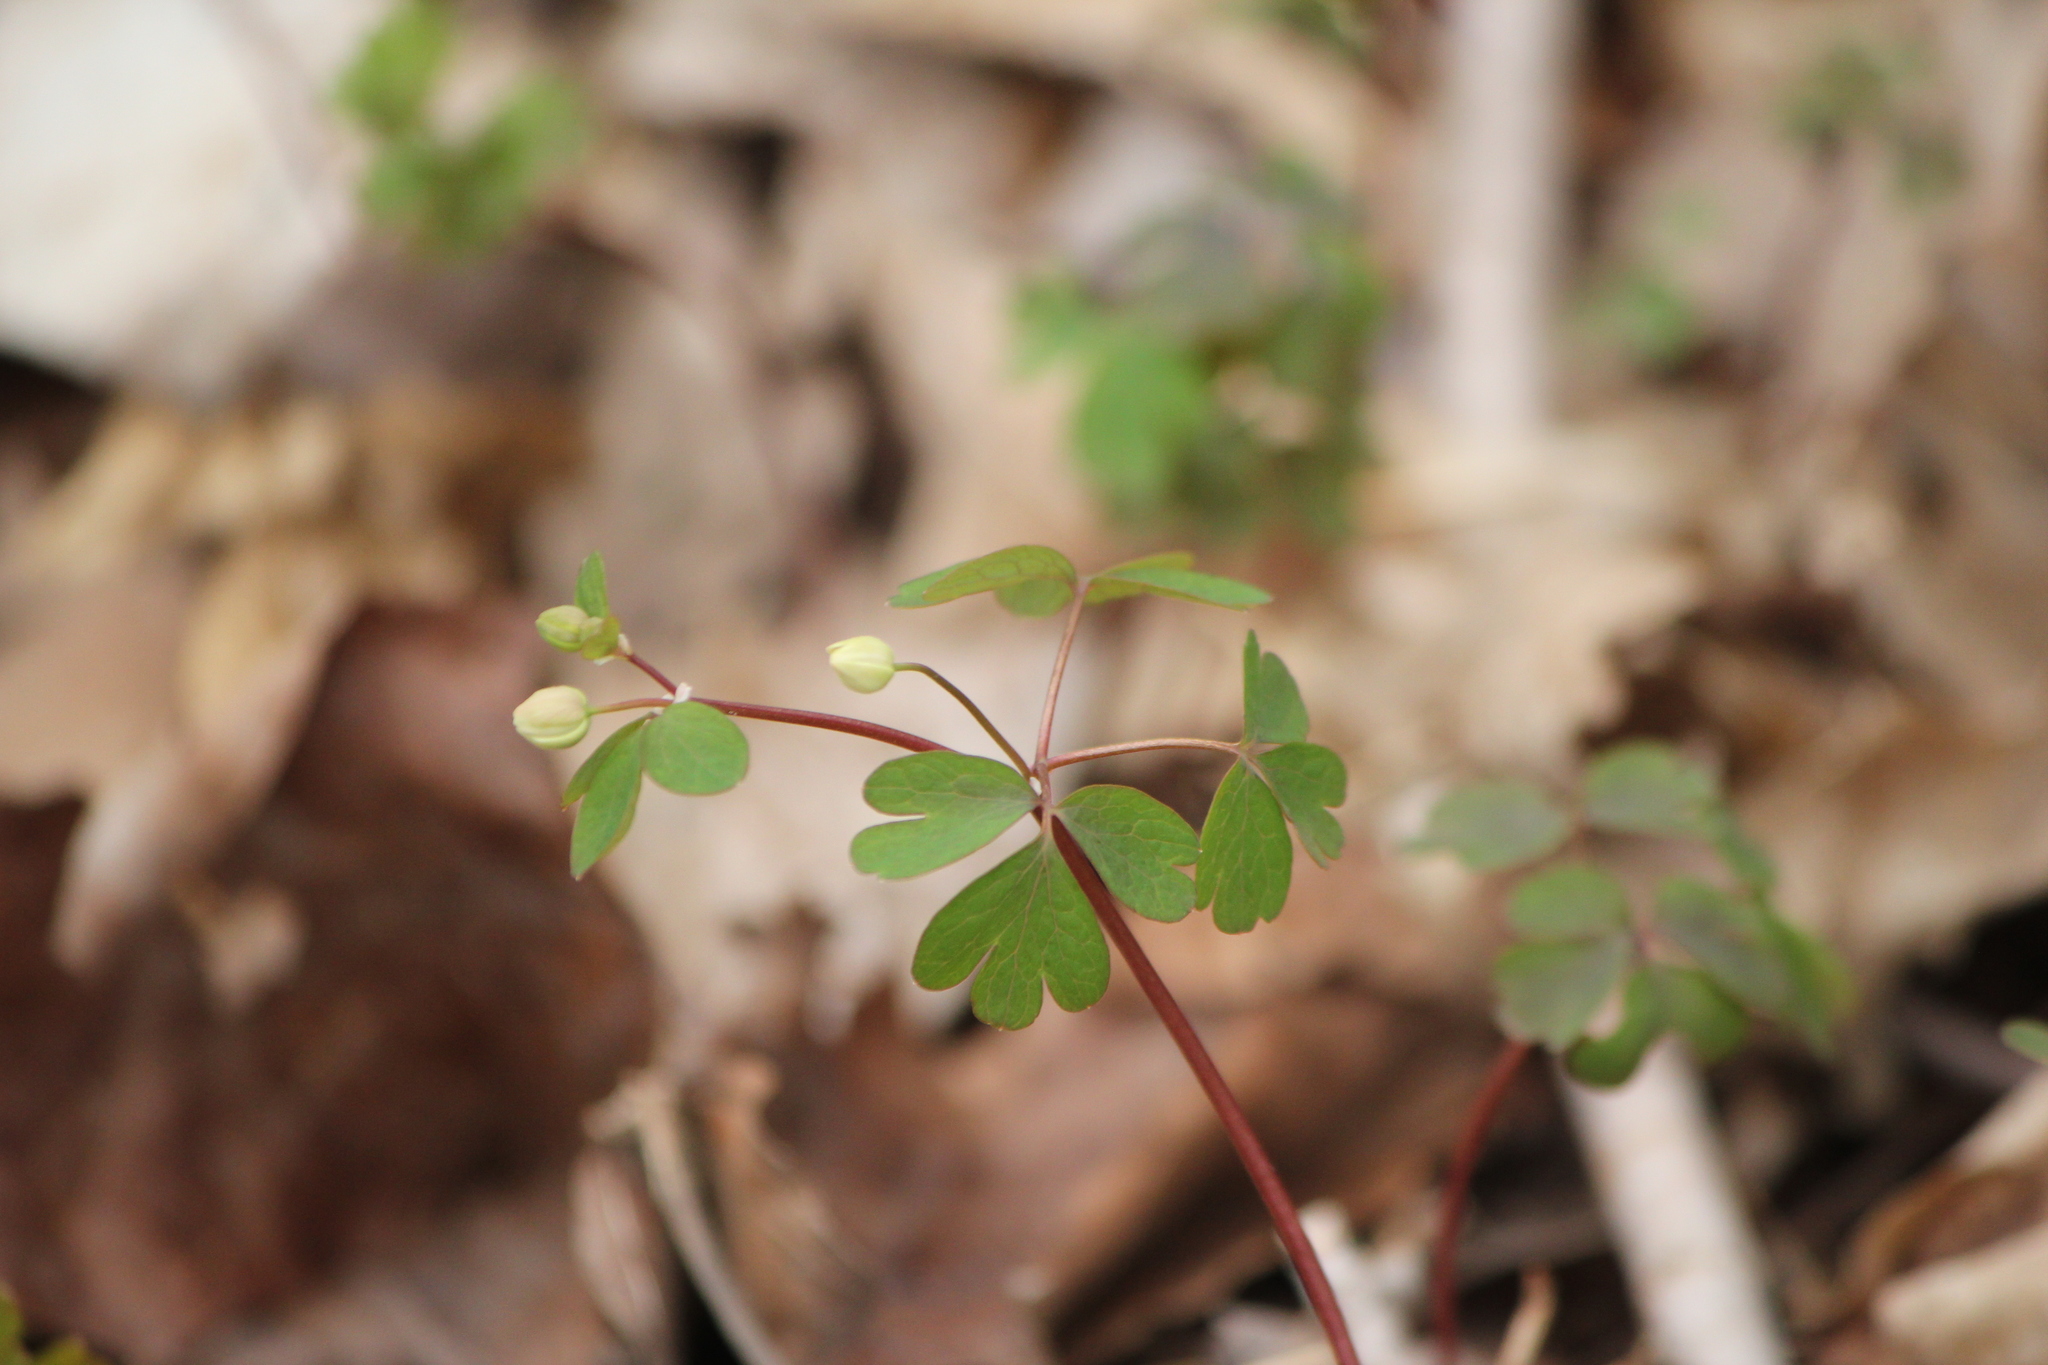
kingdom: Plantae
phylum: Tracheophyta
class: Magnoliopsida
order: Ranunculales
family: Ranunculaceae
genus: Enemion
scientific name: Enemion biternatum
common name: Eastern false rue-anemone
